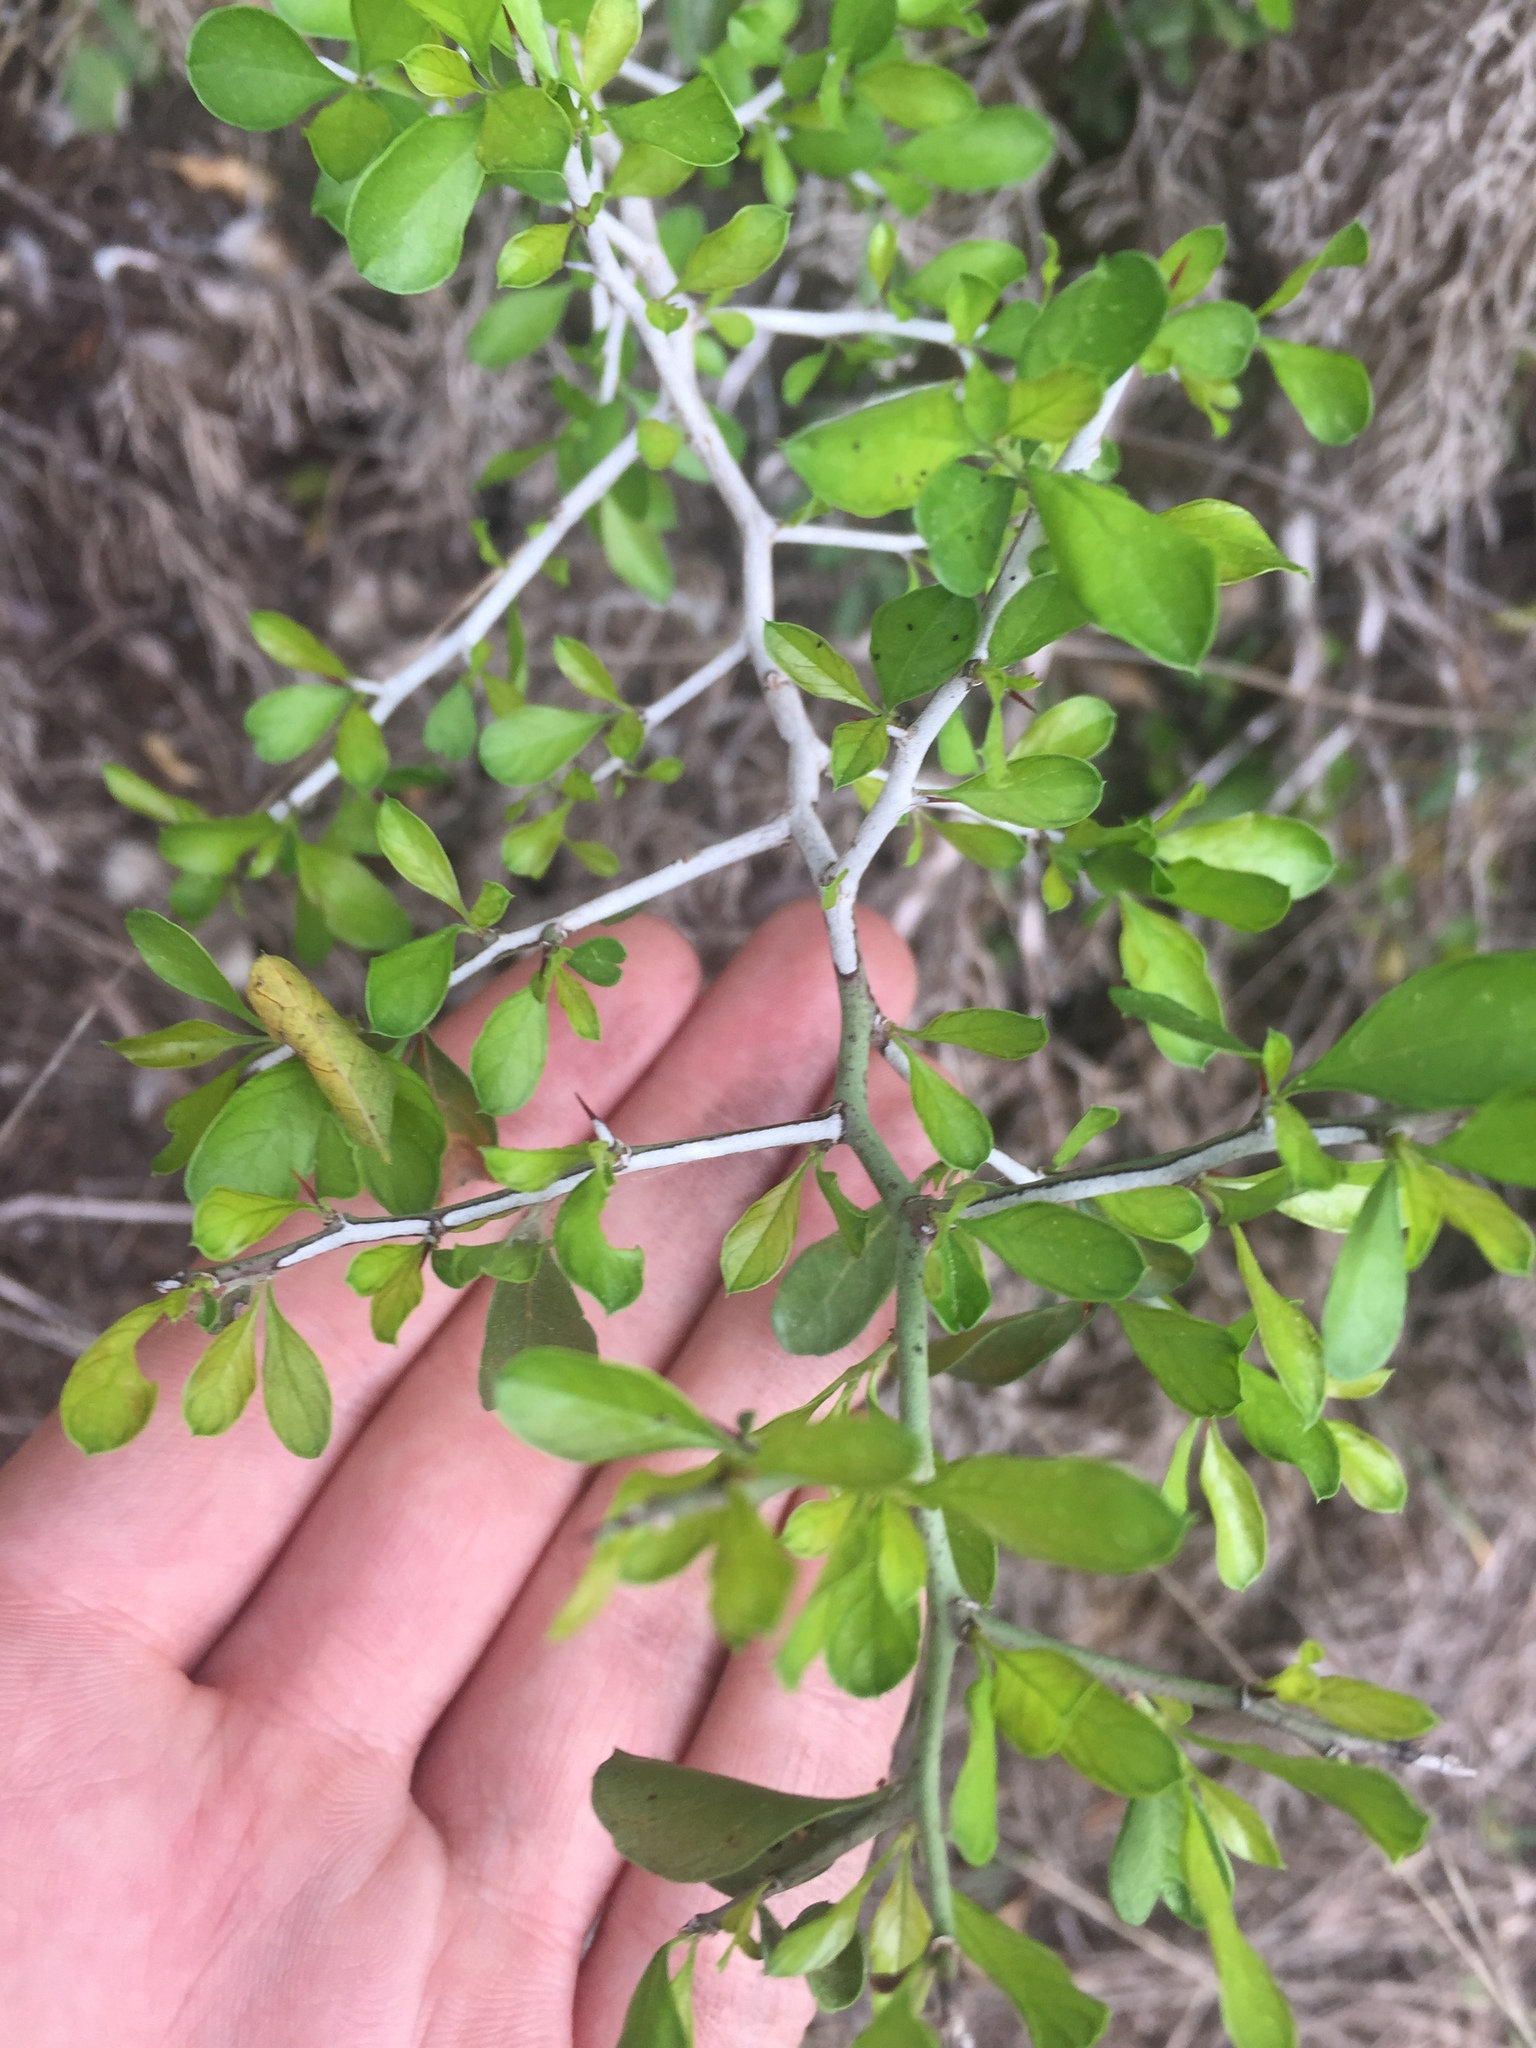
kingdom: Plantae
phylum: Tracheophyta
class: Magnoliopsida
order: Rosales
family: Rhamnaceae
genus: Condalia
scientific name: Condalia hookeri
